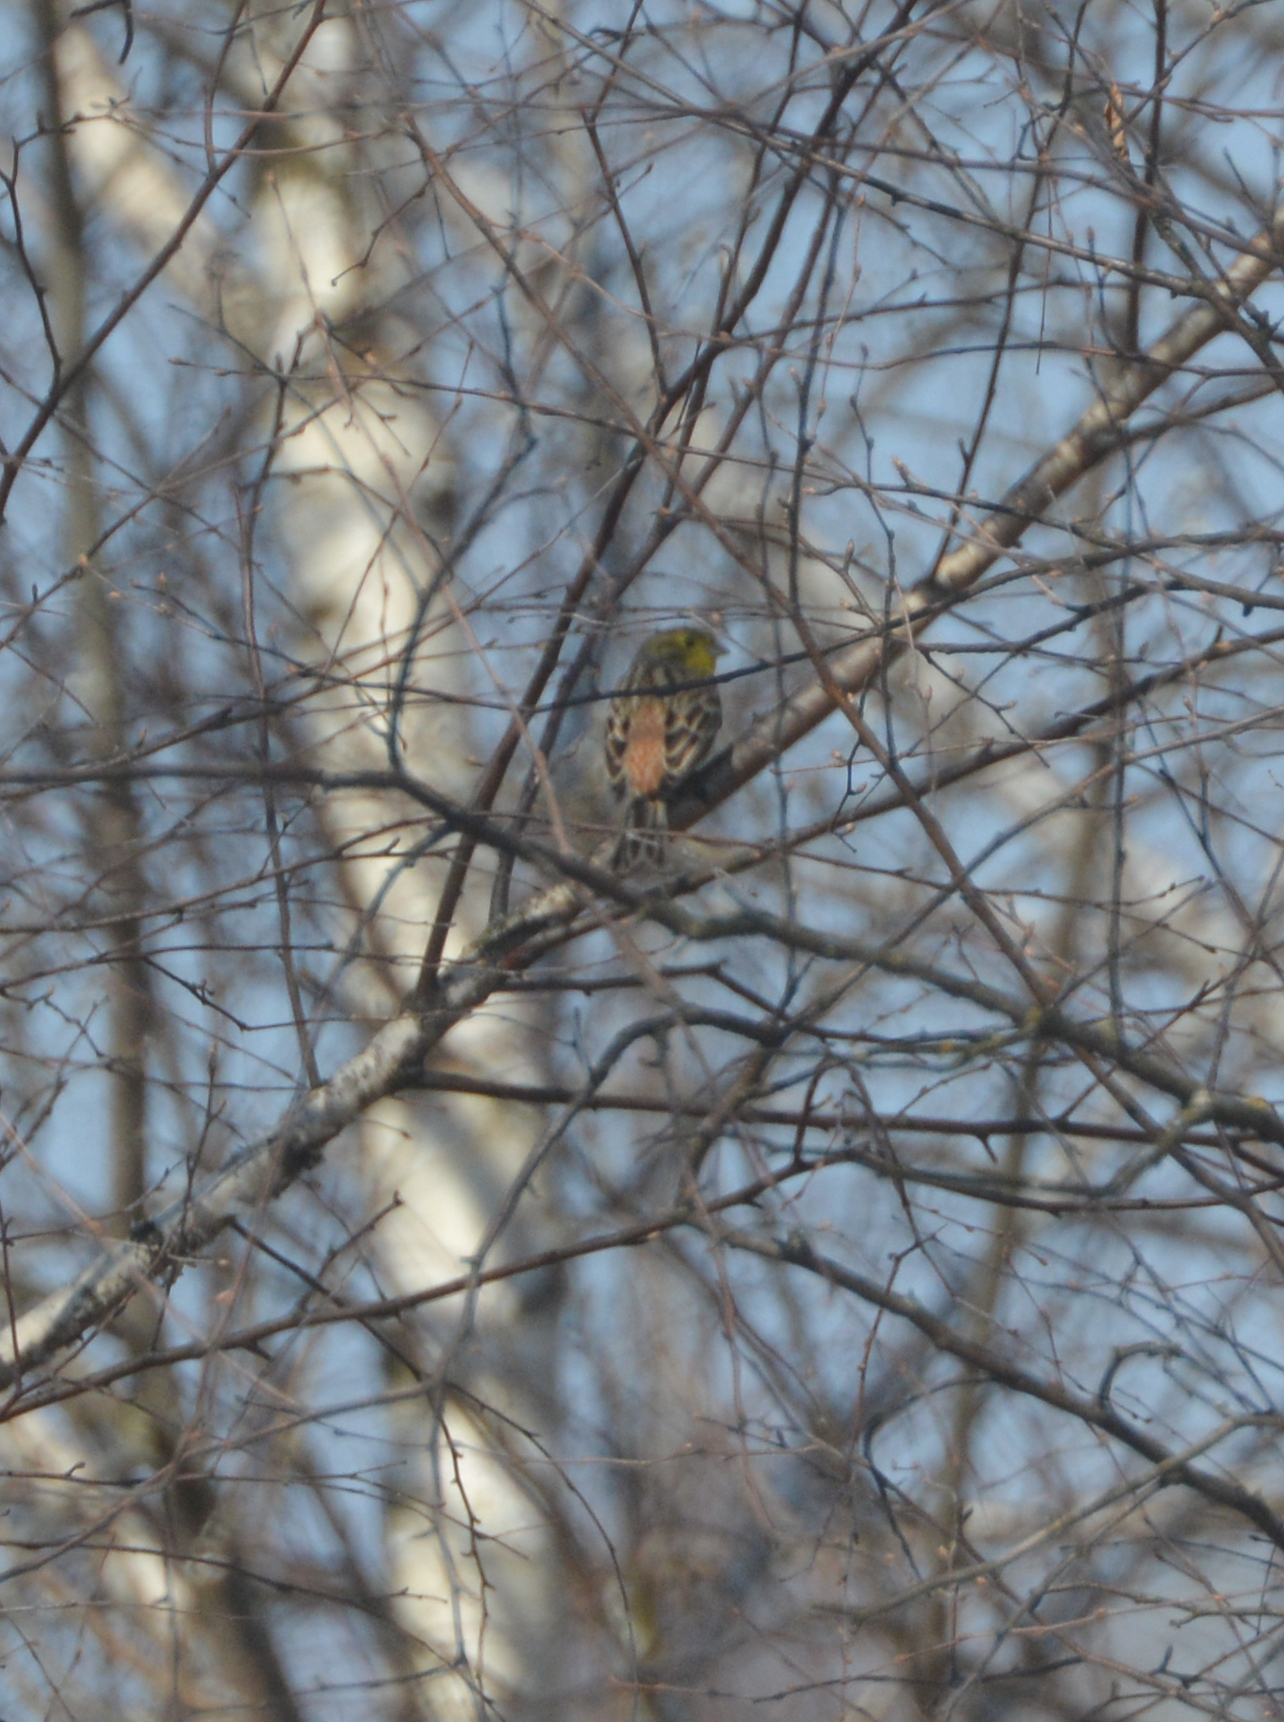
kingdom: Animalia
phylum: Chordata
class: Aves
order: Passeriformes
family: Emberizidae
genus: Emberiza
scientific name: Emberiza citrinella
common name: Yellowhammer
